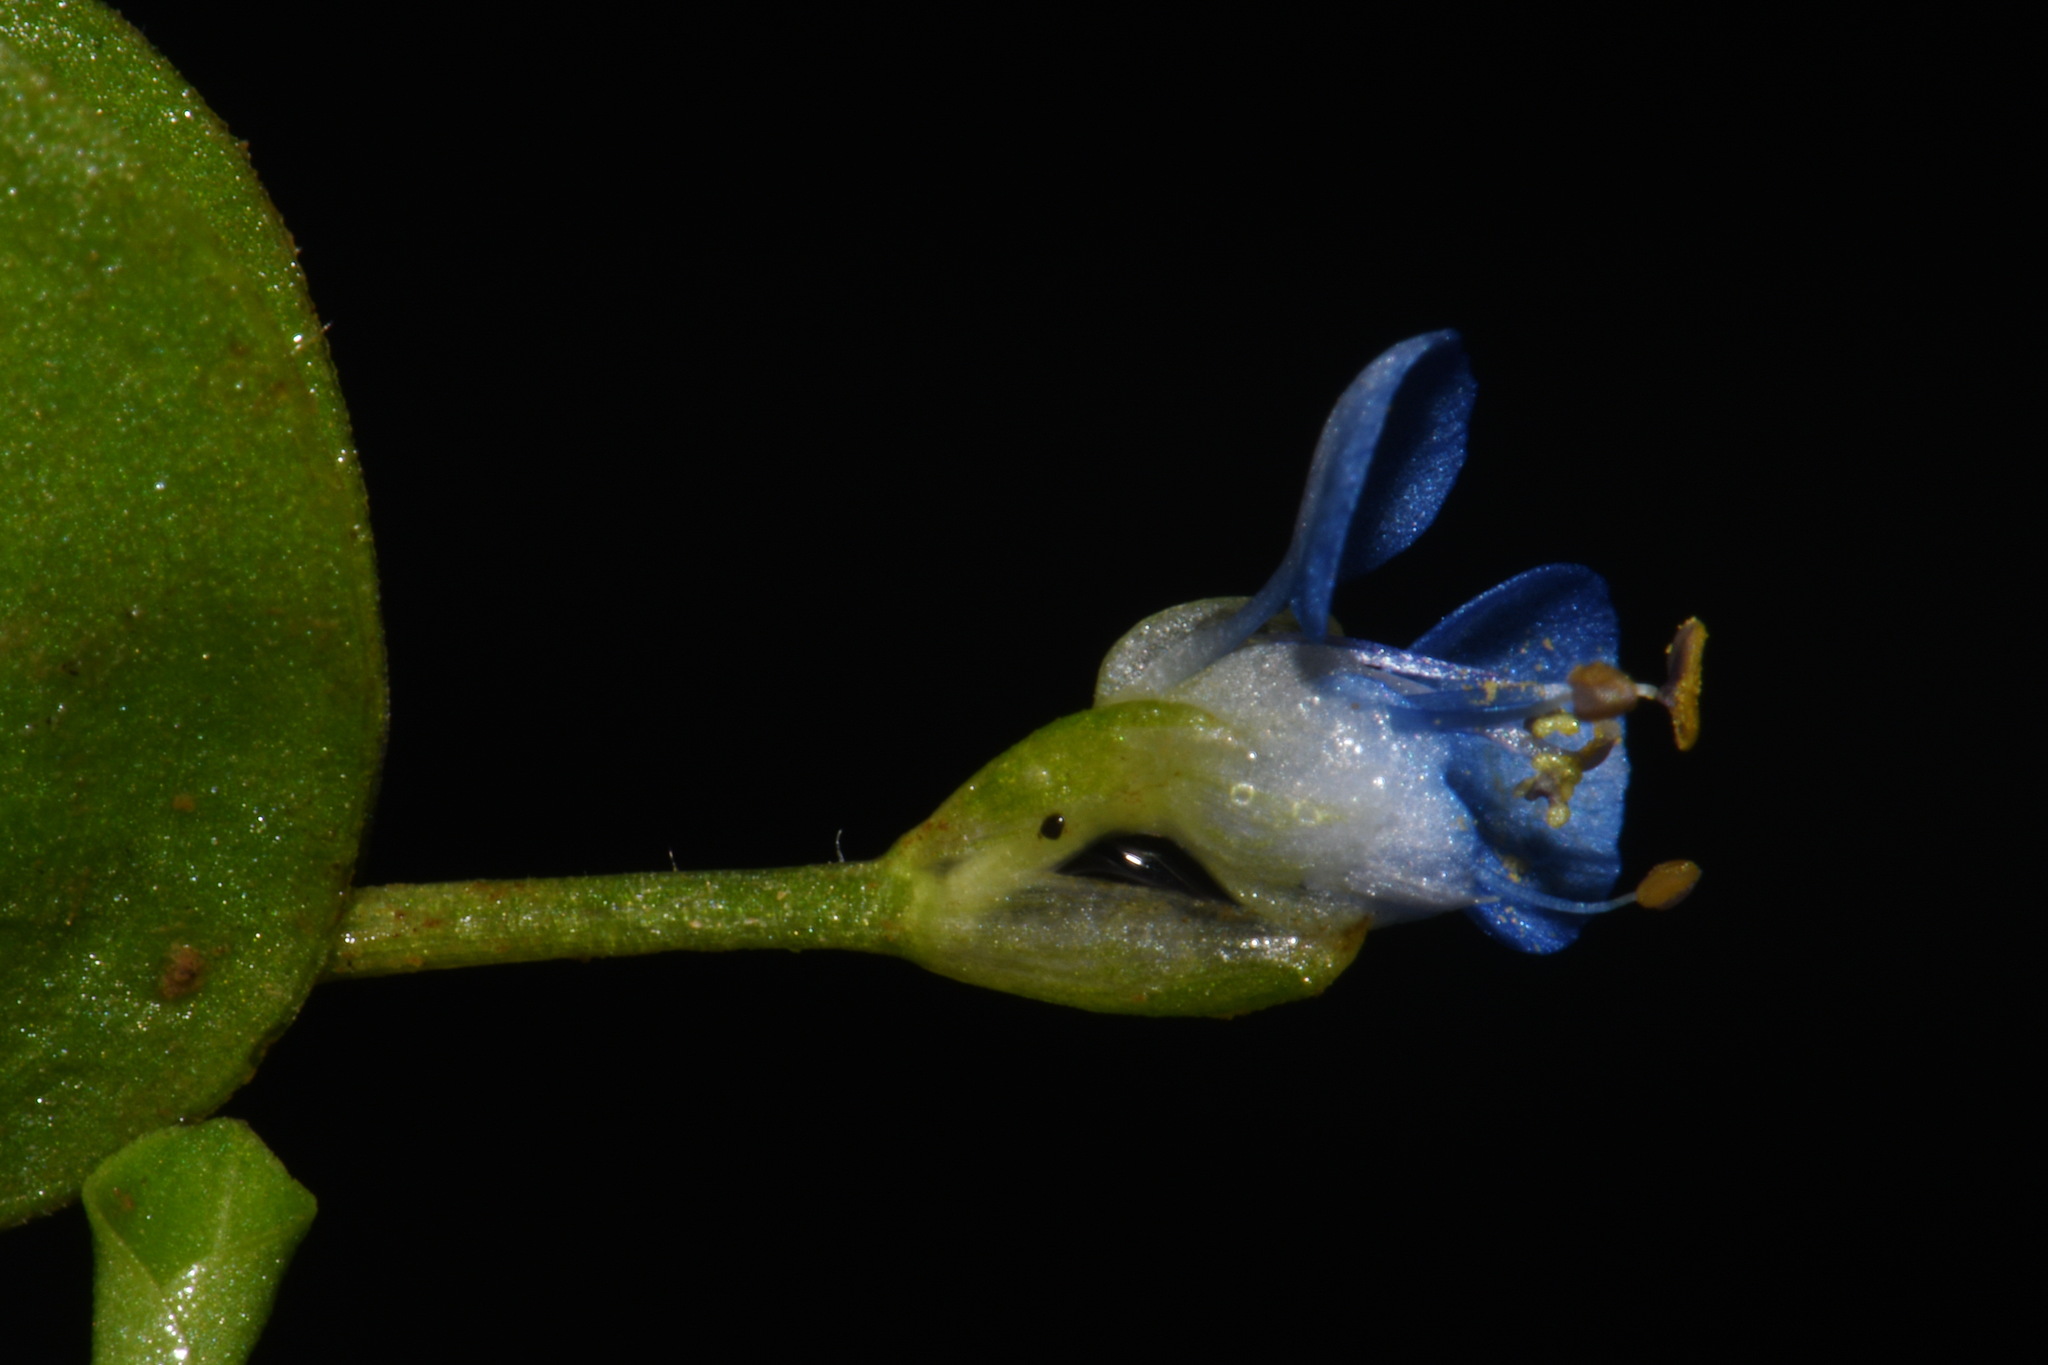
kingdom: Plantae
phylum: Tracheophyta
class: Liliopsida
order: Commelinales
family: Commelinaceae
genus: Commelina
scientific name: Commelina diffusa
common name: Climbing dayflower
